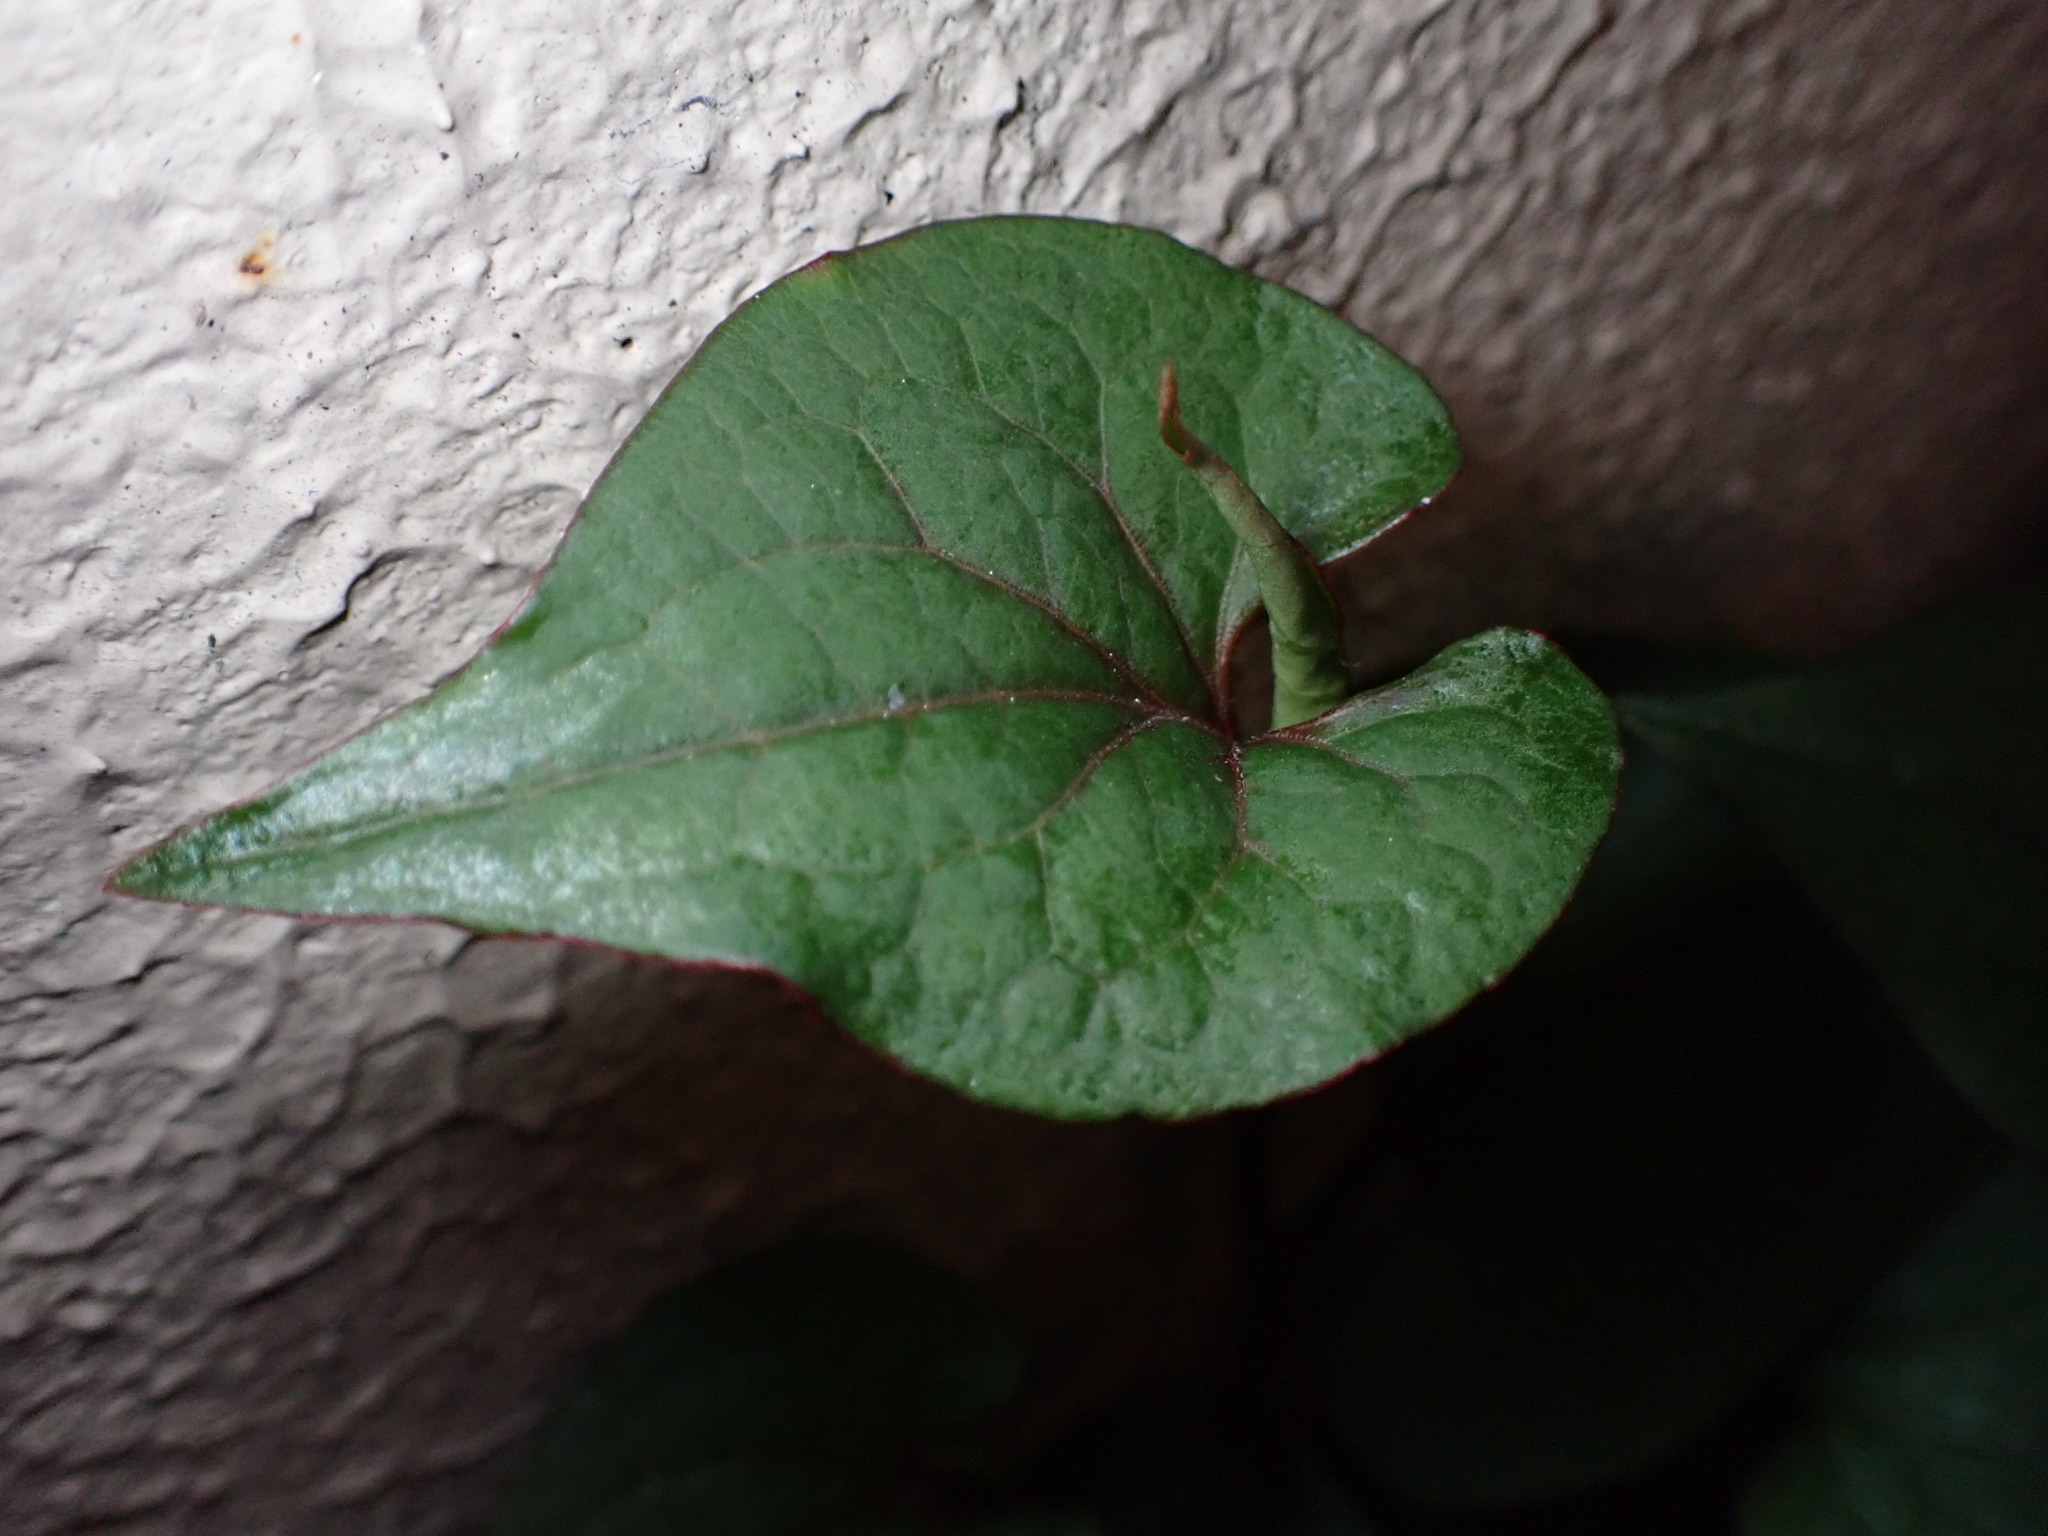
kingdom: Plantae
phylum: Tracheophyta
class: Magnoliopsida
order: Piperales
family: Saururaceae
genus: Houttuynia
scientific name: Houttuynia cordata
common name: Chameleon
